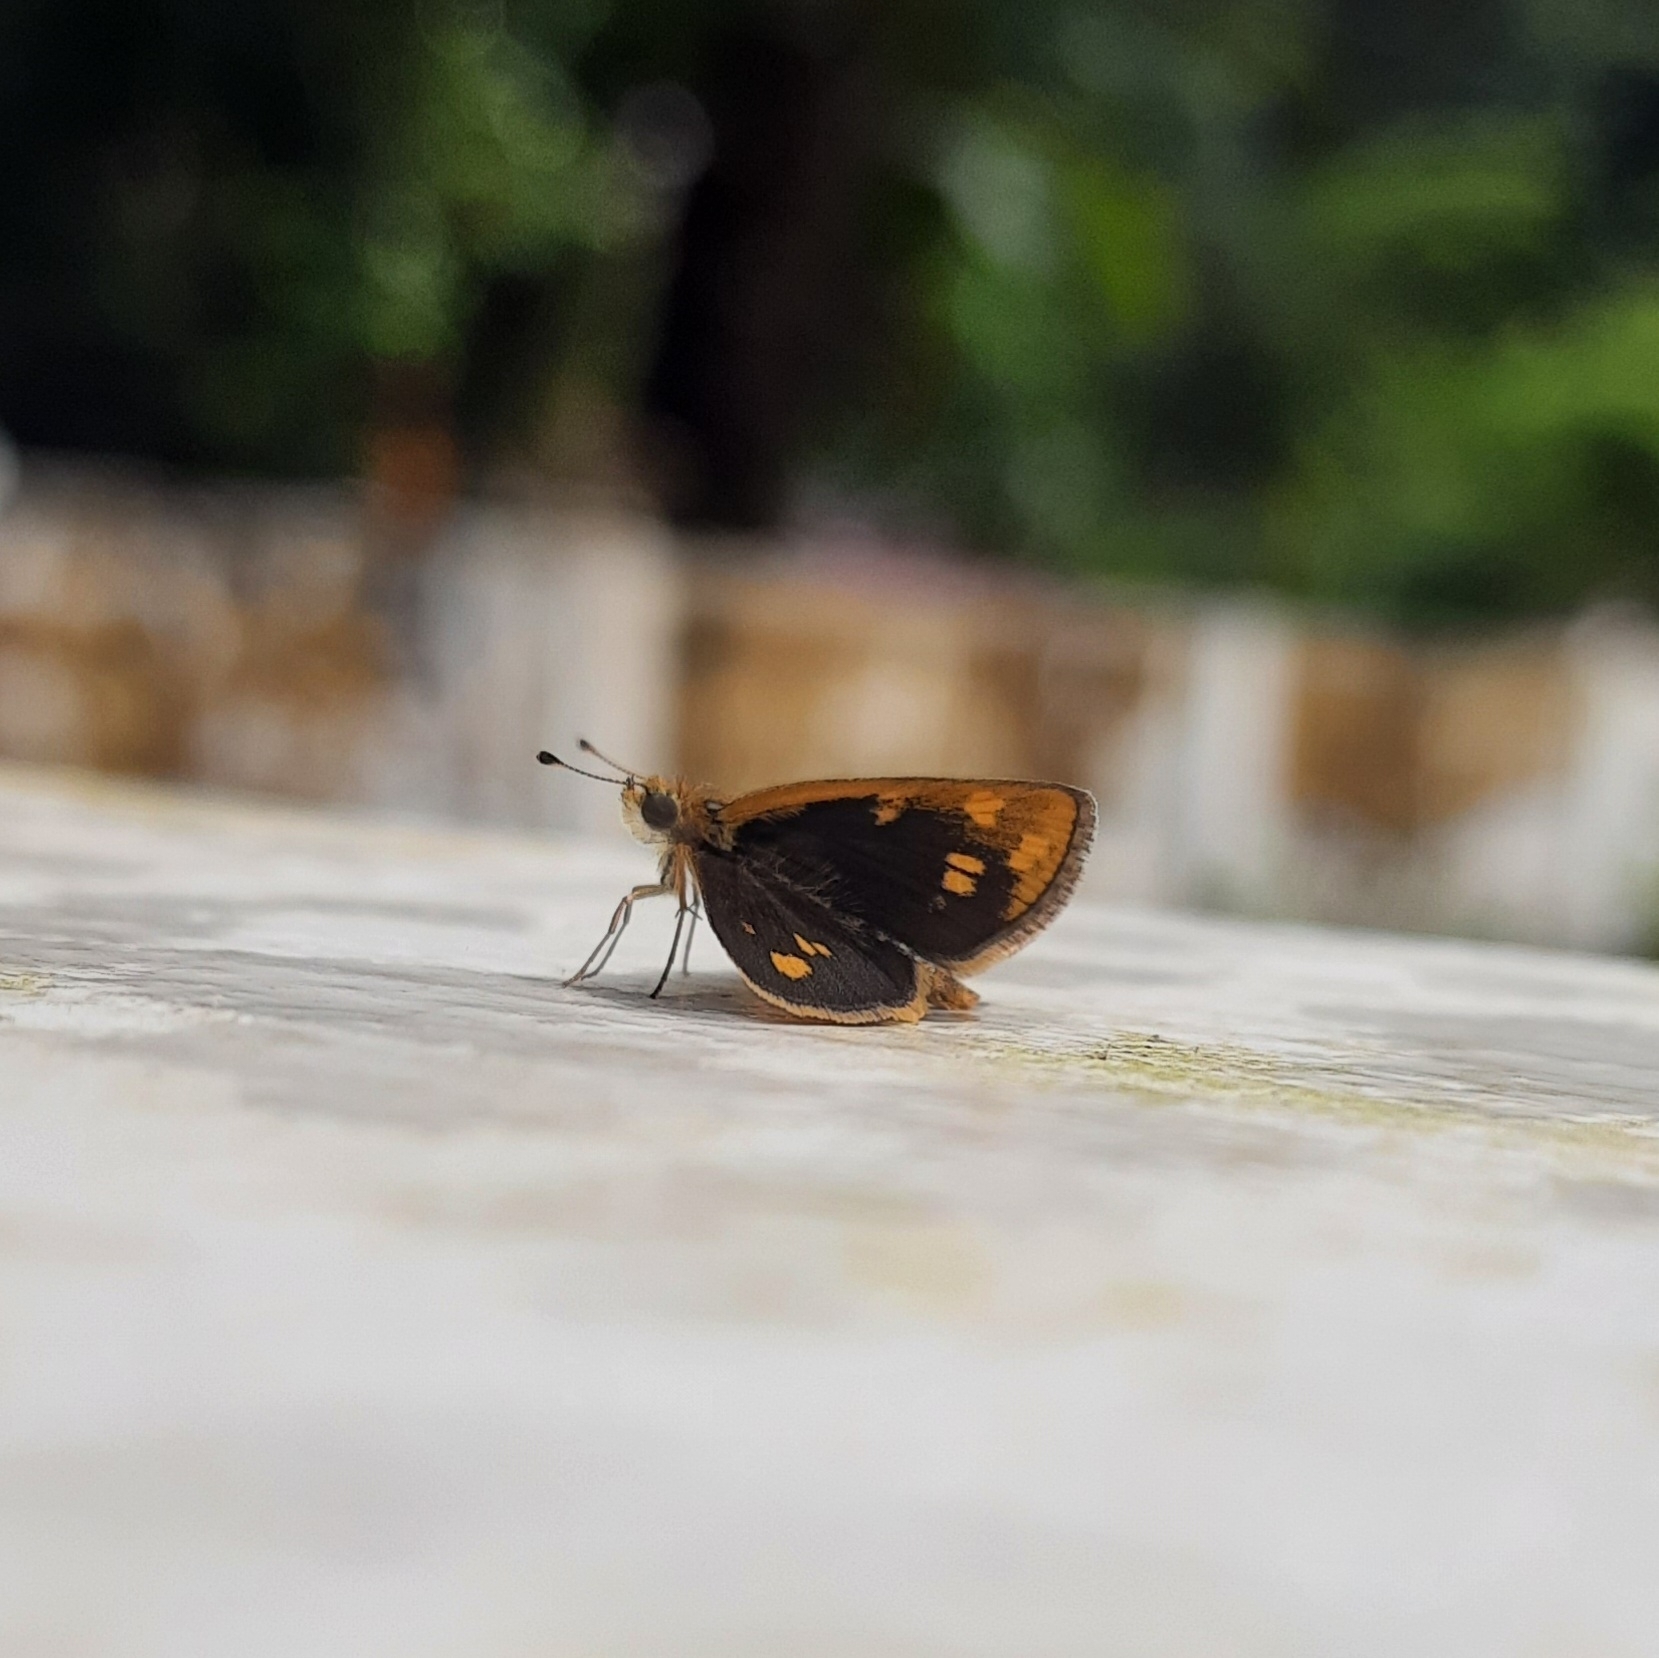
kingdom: Animalia
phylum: Arthropoda
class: Insecta
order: Lepidoptera
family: Hesperiidae
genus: Taractrocera
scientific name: Taractrocera ceramas
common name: Tamil grass dart
